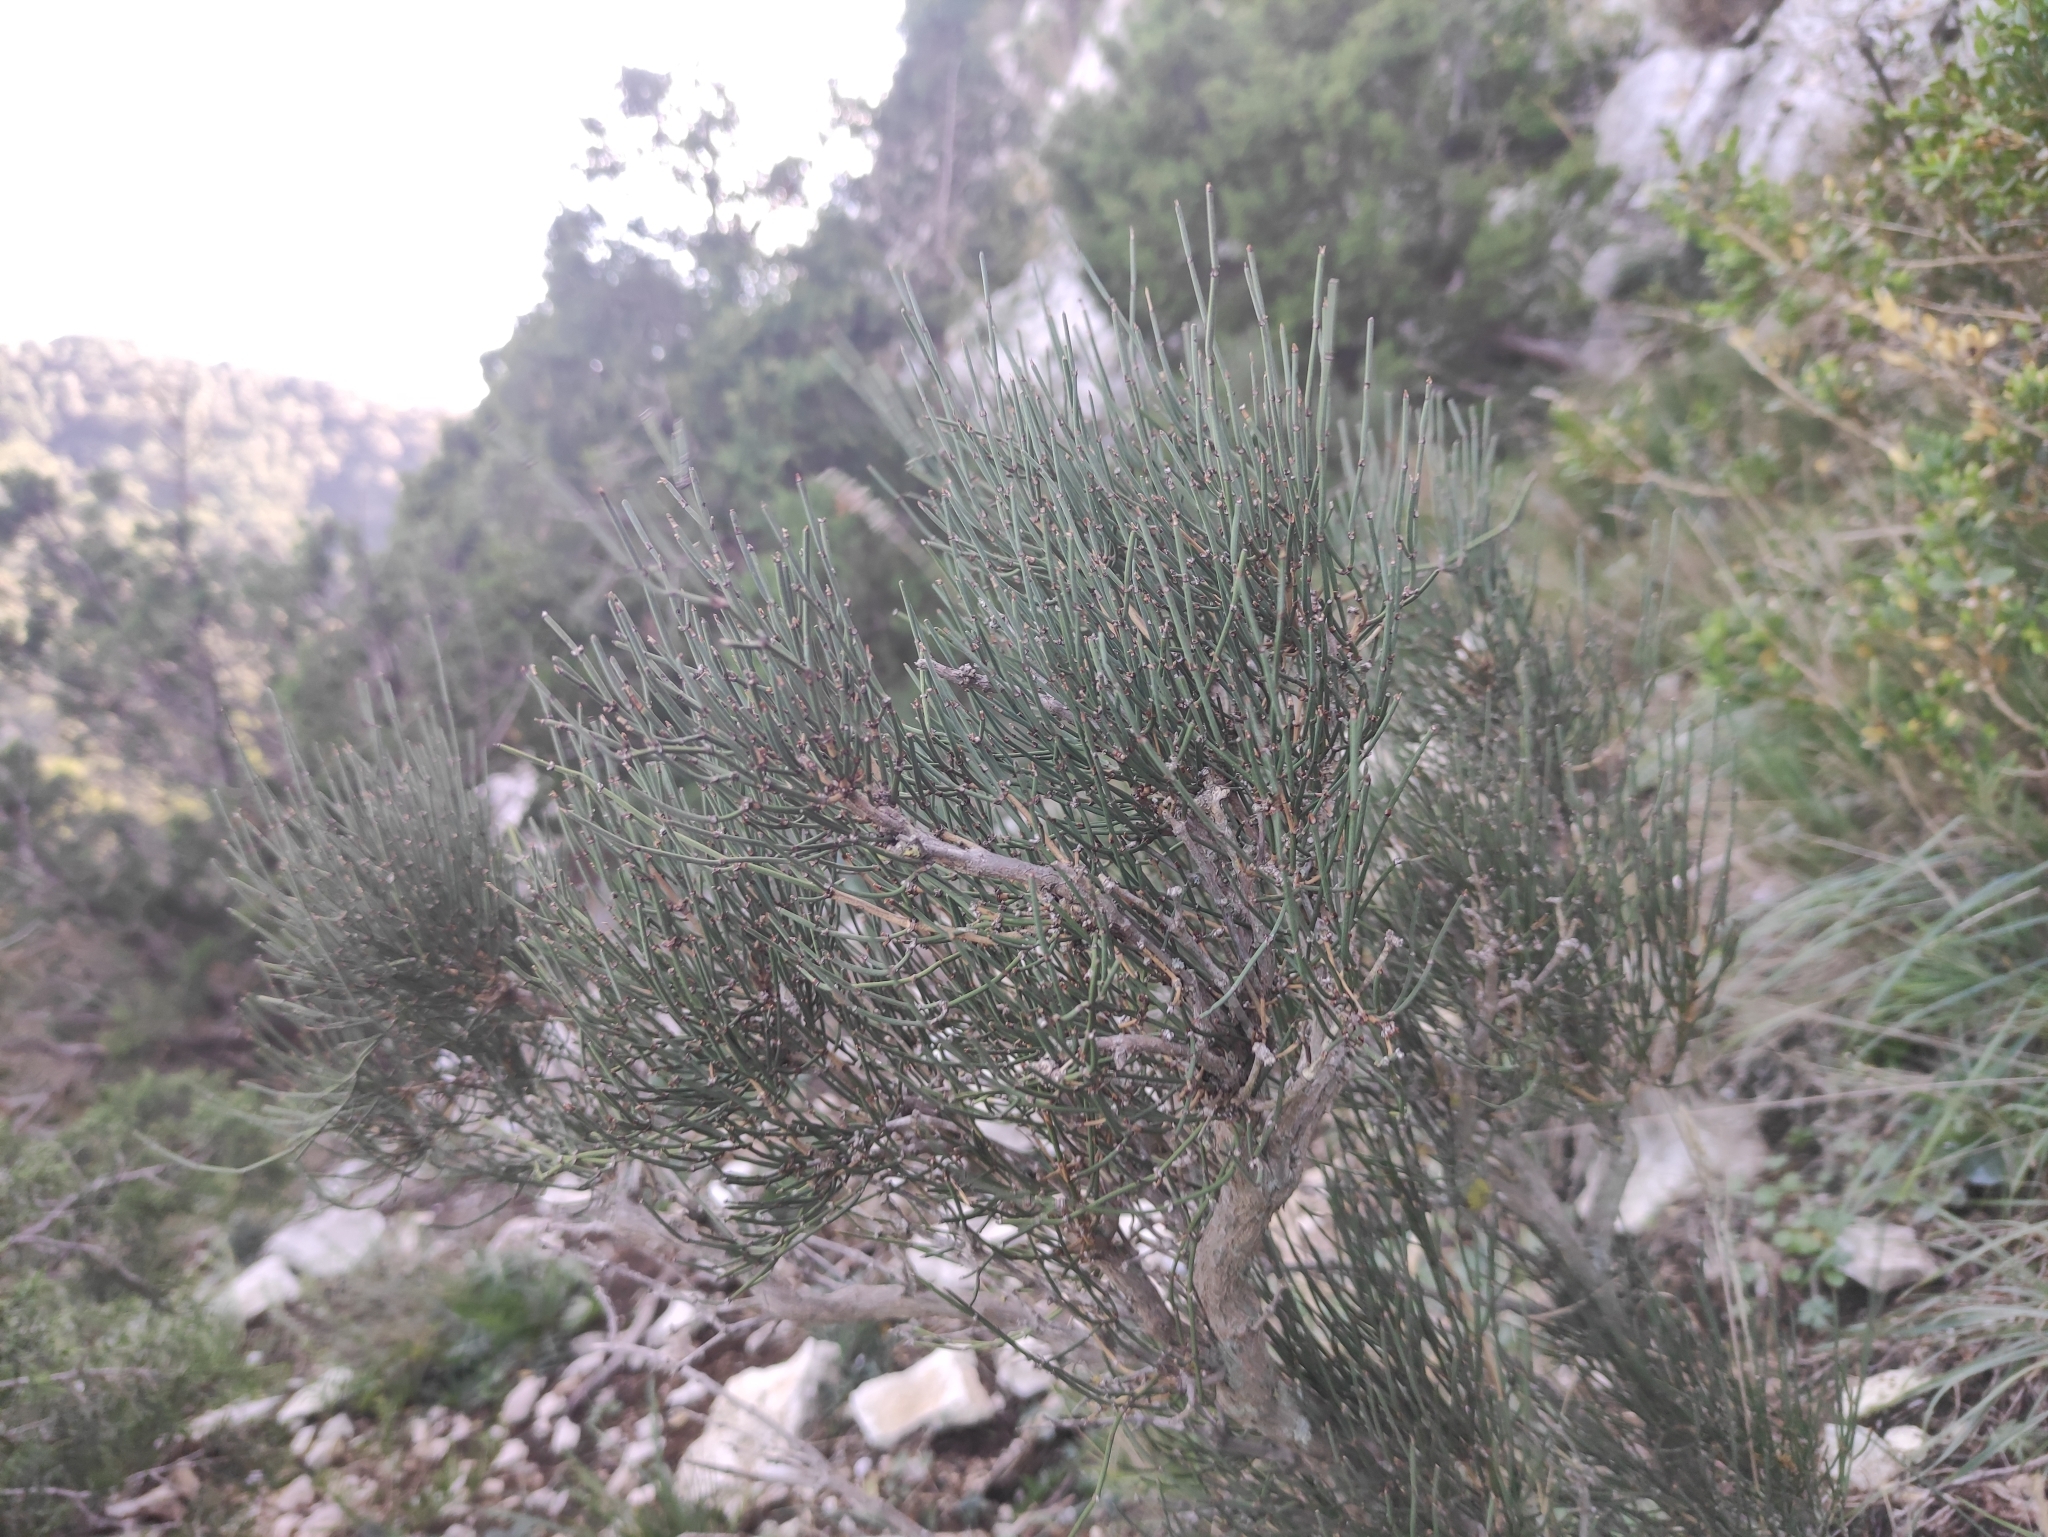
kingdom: Plantae
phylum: Tracheophyta
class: Gnetopsida
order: Ephedrales
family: Ephedraceae
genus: Ephedra
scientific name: Ephedra major
